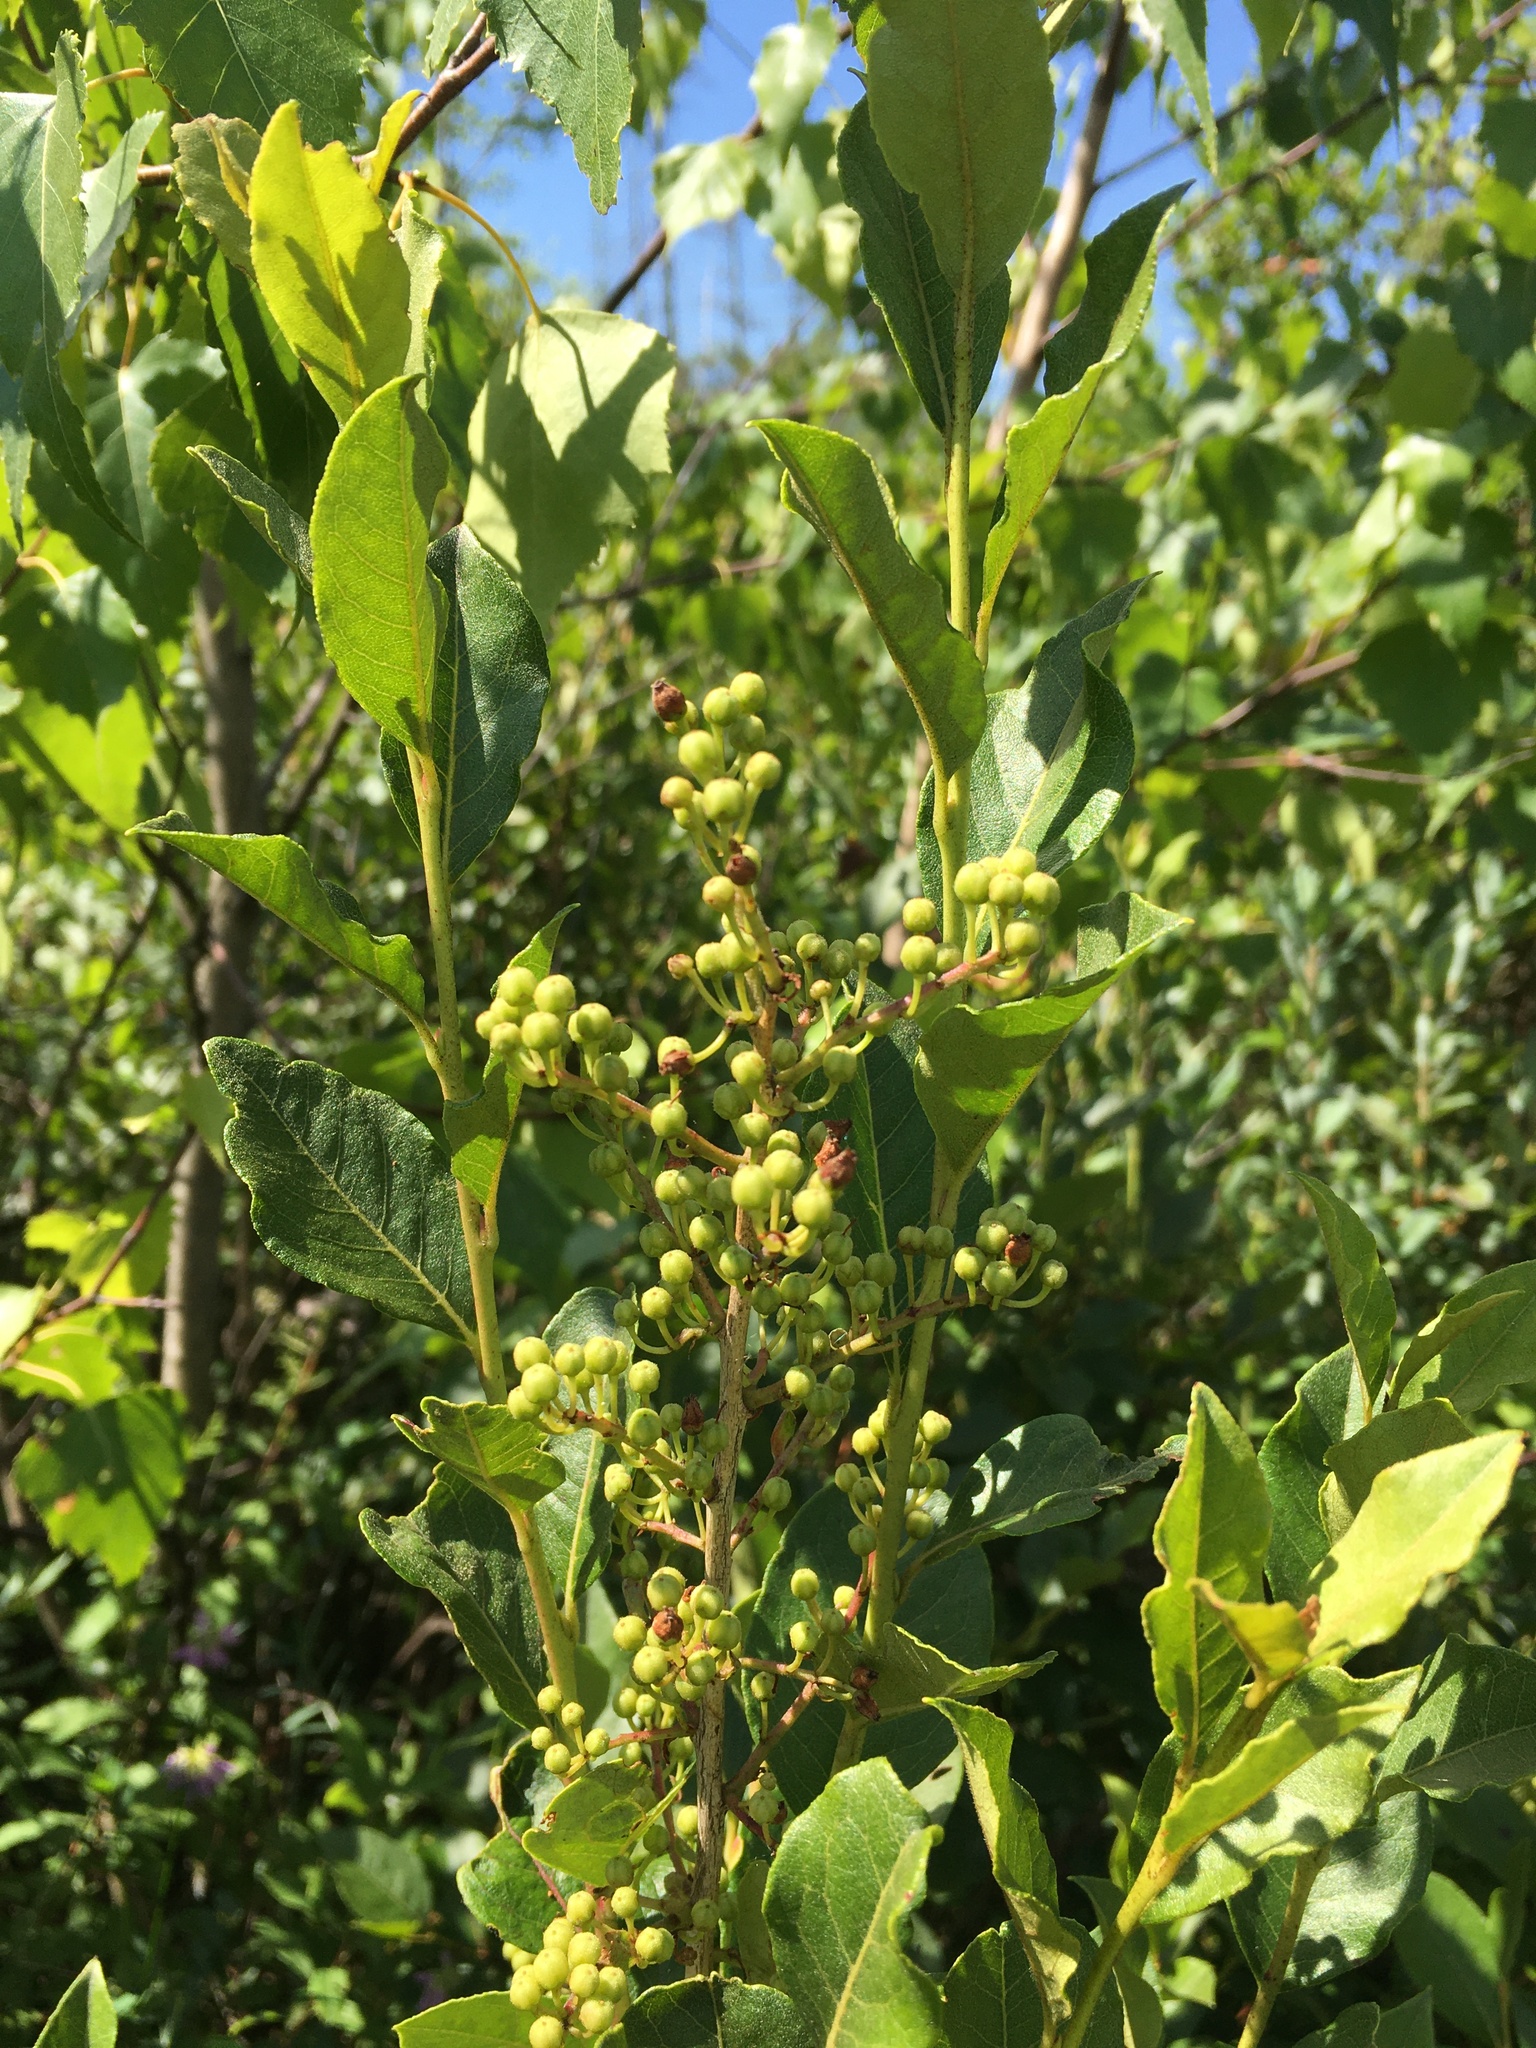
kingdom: Plantae
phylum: Tracheophyta
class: Magnoliopsida
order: Ericales
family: Ericaceae
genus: Lyonia
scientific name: Lyonia ligustrina
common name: Maleberry
